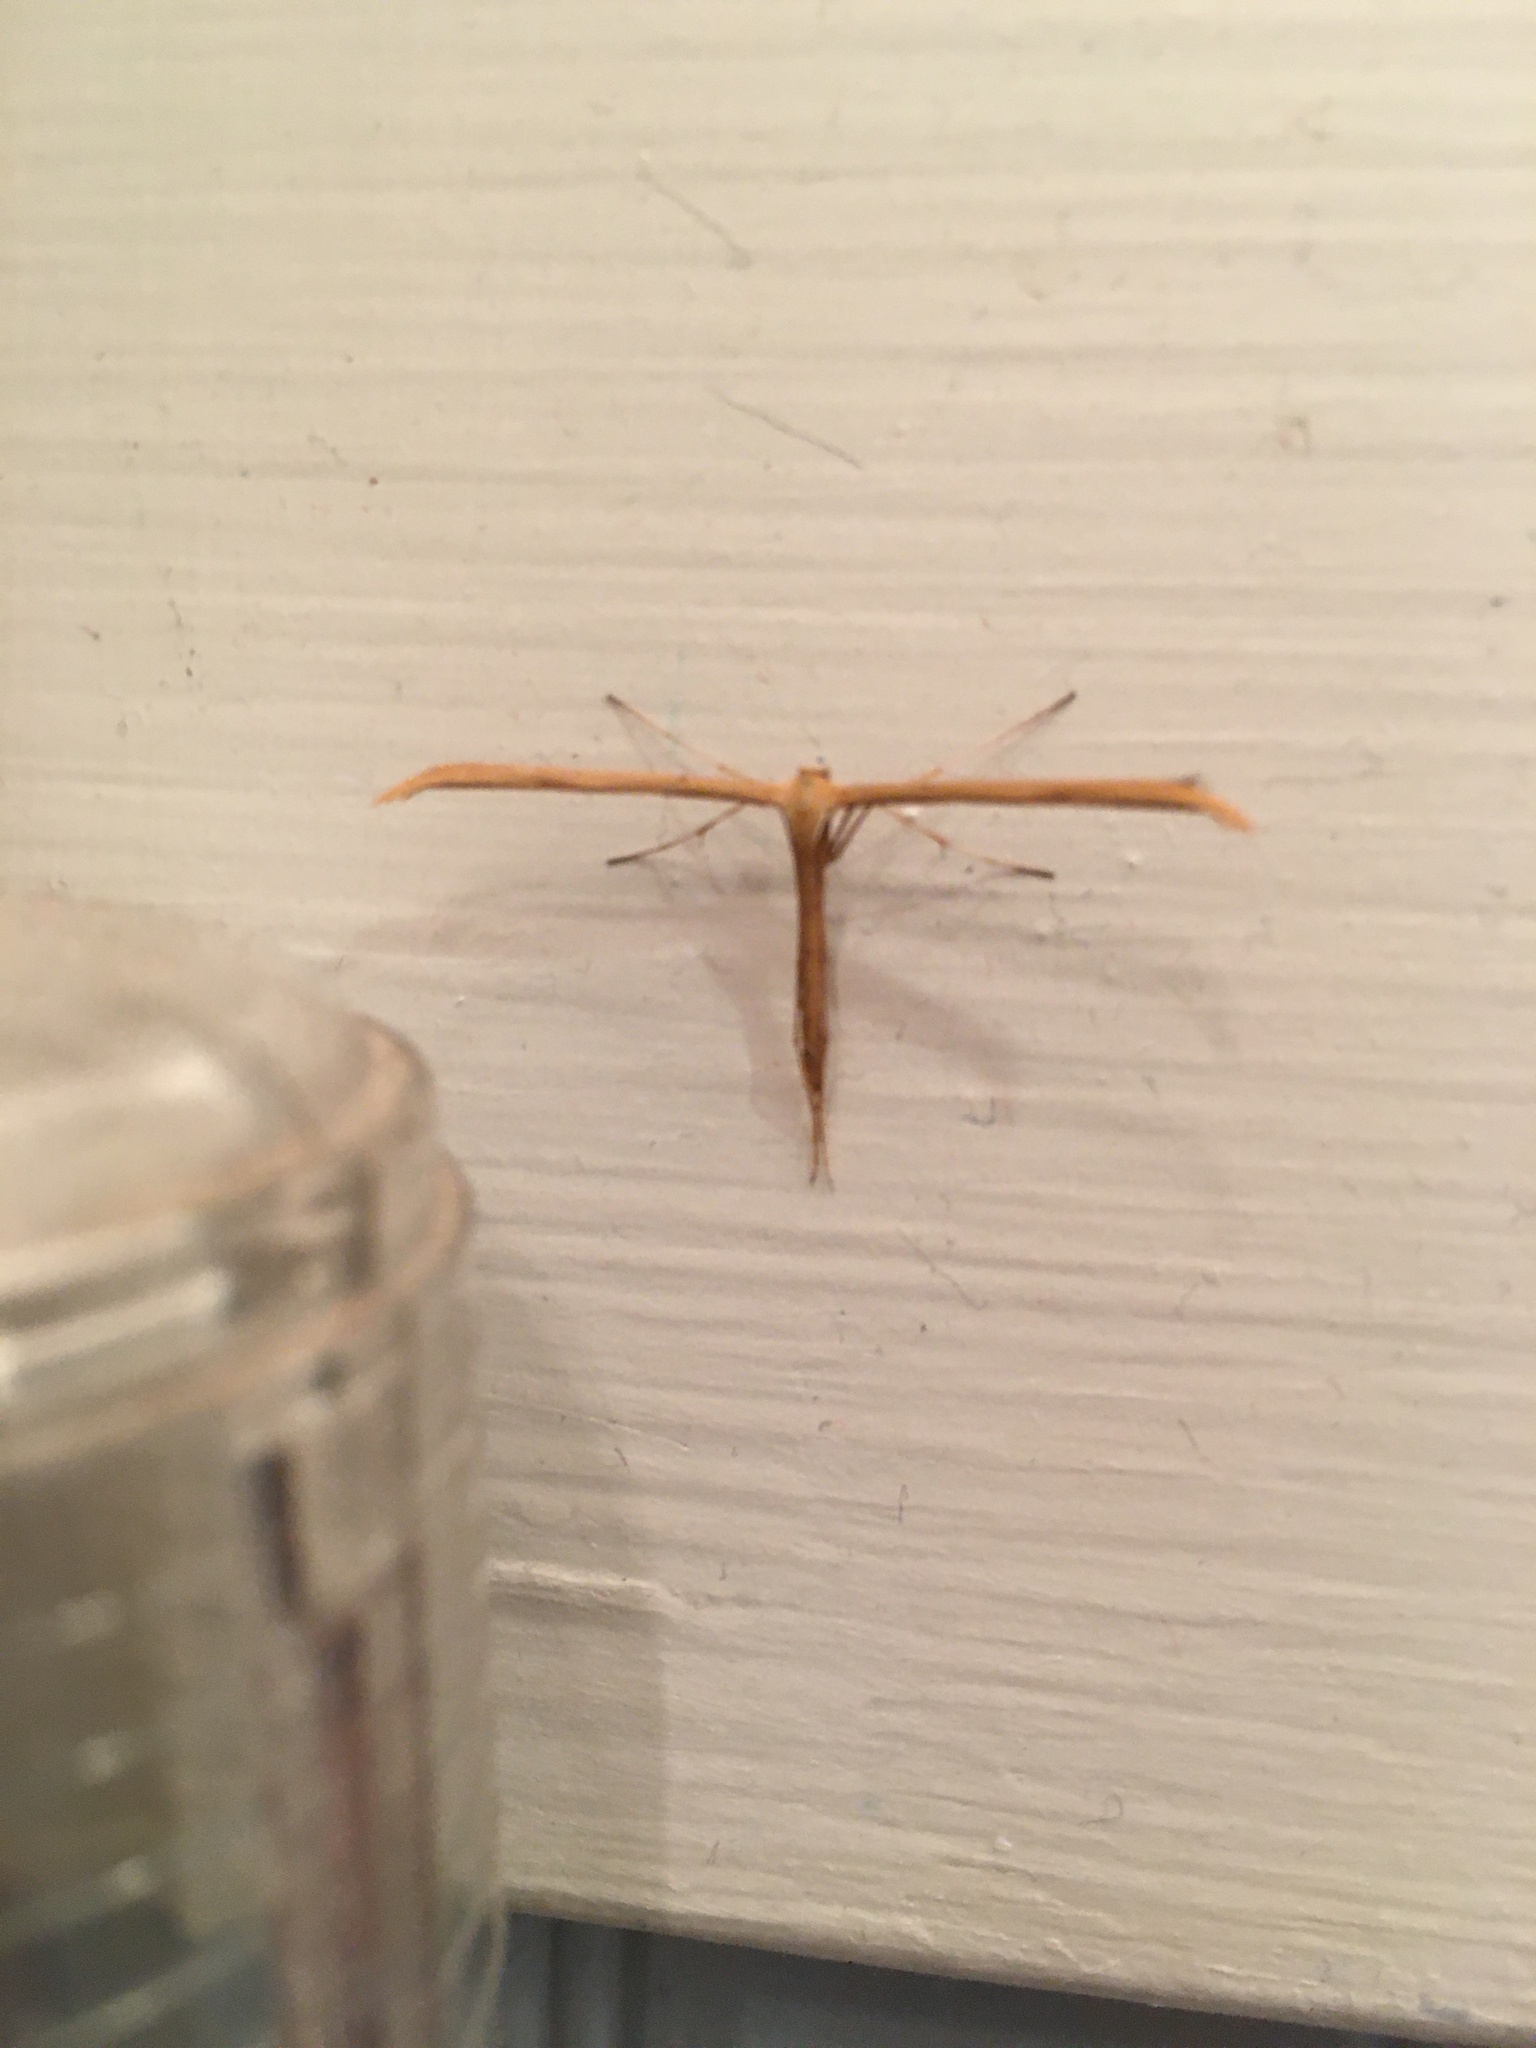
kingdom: Animalia
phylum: Arthropoda
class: Insecta
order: Lepidoptera
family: Pterophoridae
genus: Emmelina
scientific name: Emmelina monodactyla
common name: Common plume
